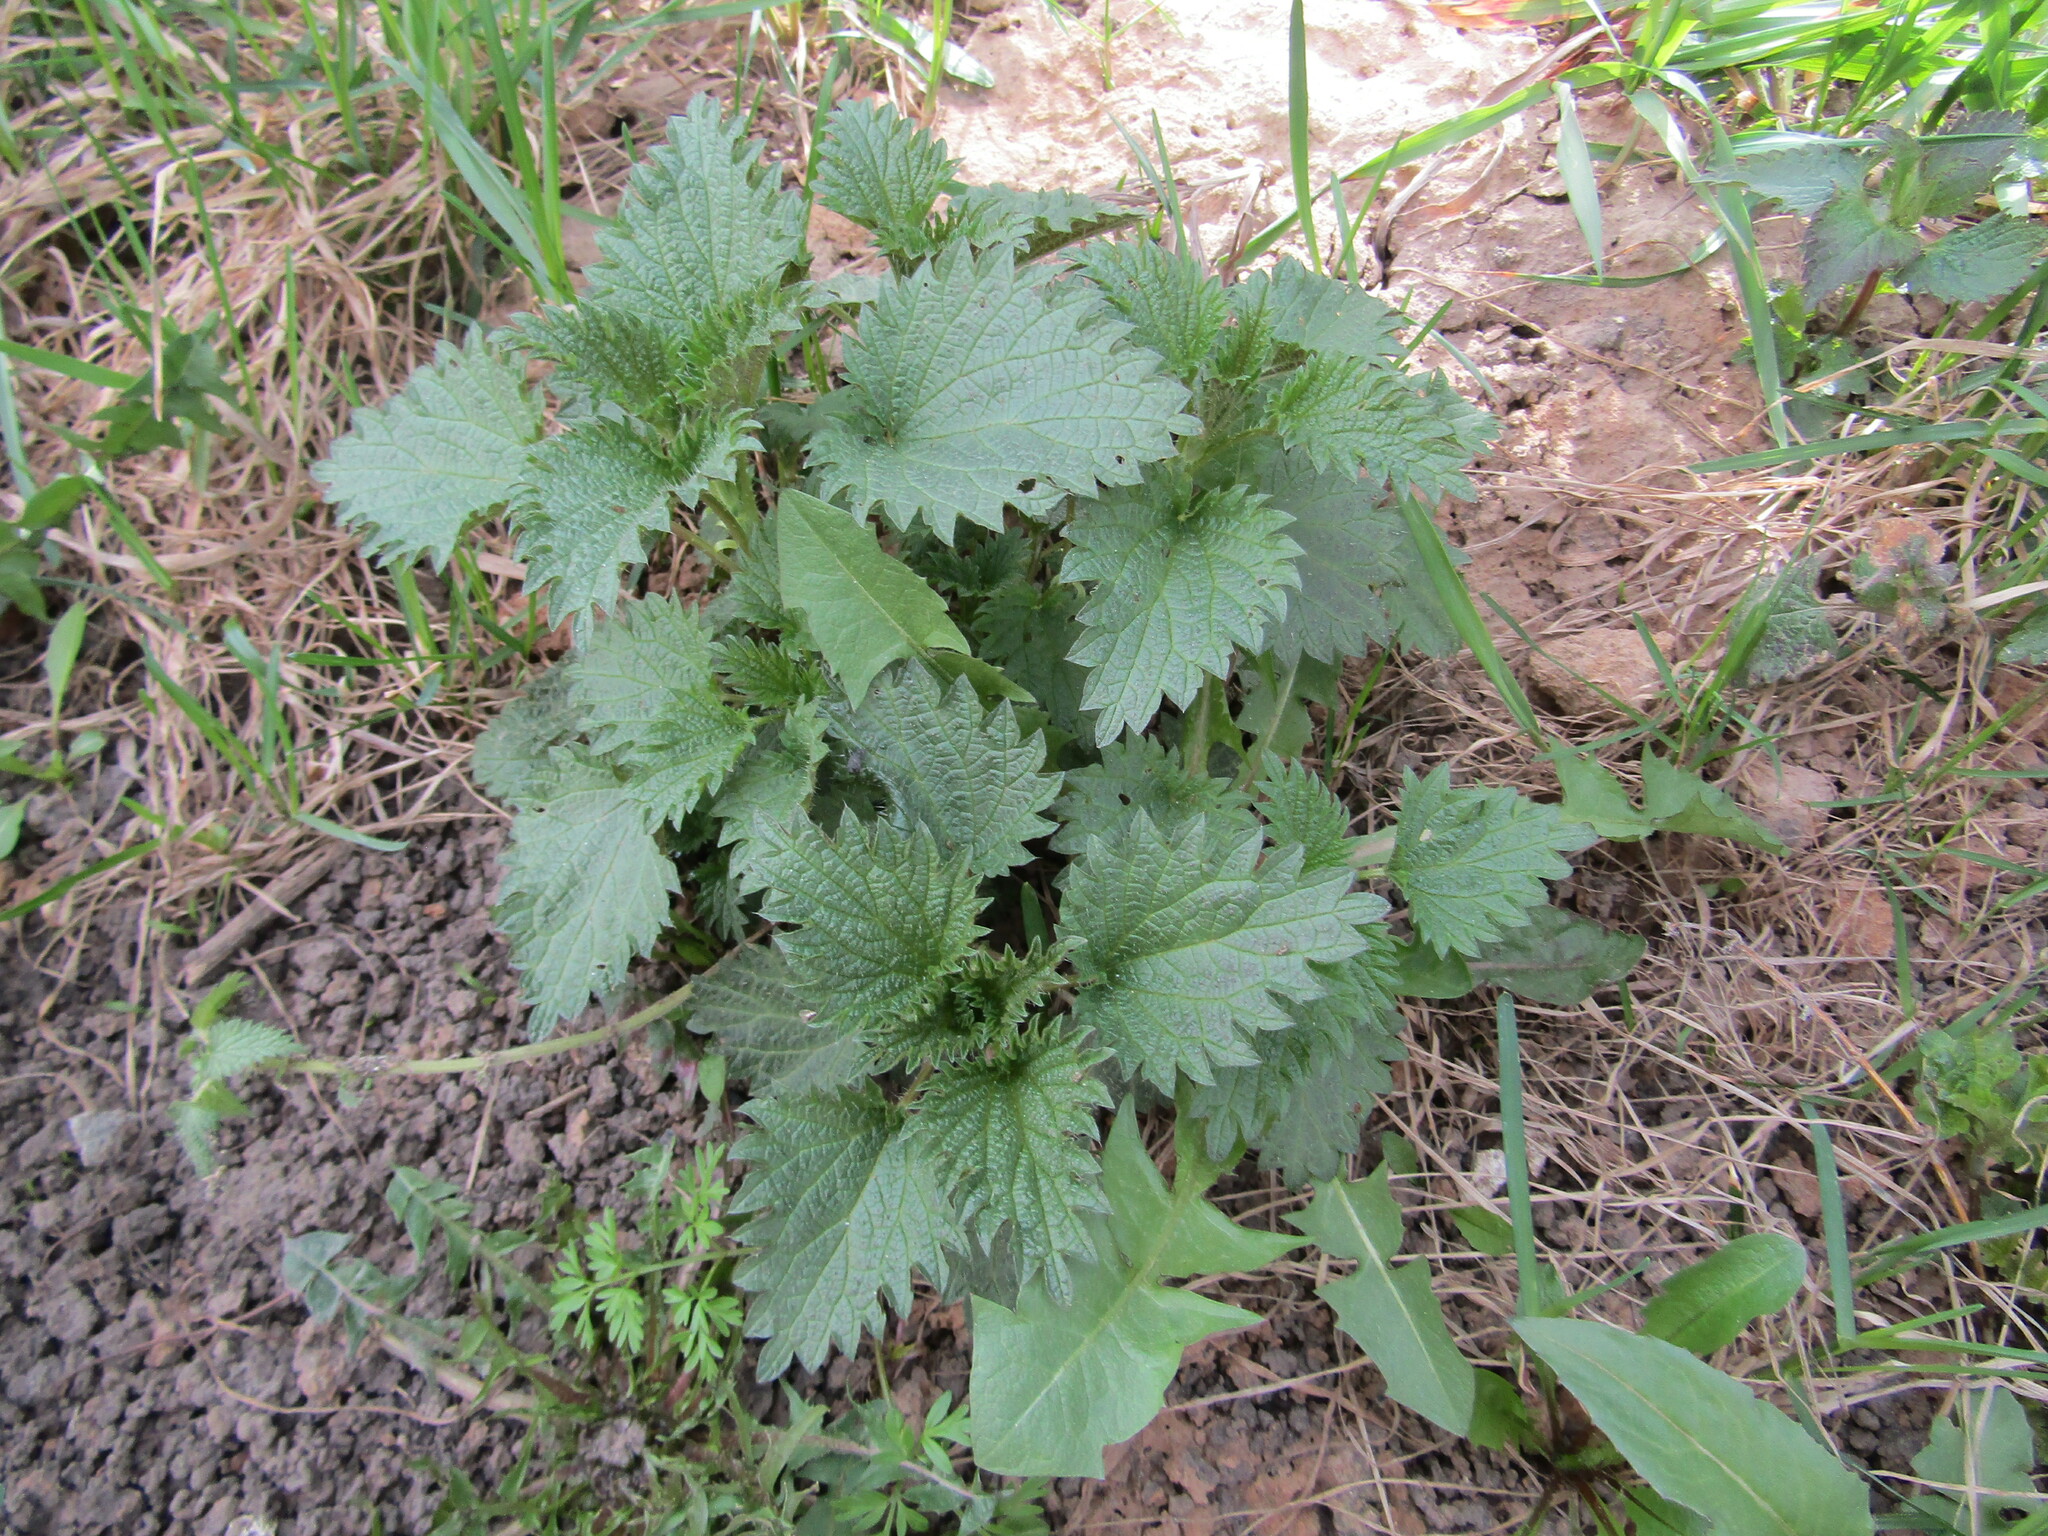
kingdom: Plantae
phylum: Tracheophyta
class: Magnoliopsida
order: Rosales
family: Urticaceae
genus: Urtica
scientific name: Urtica dioica
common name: Common nettle
